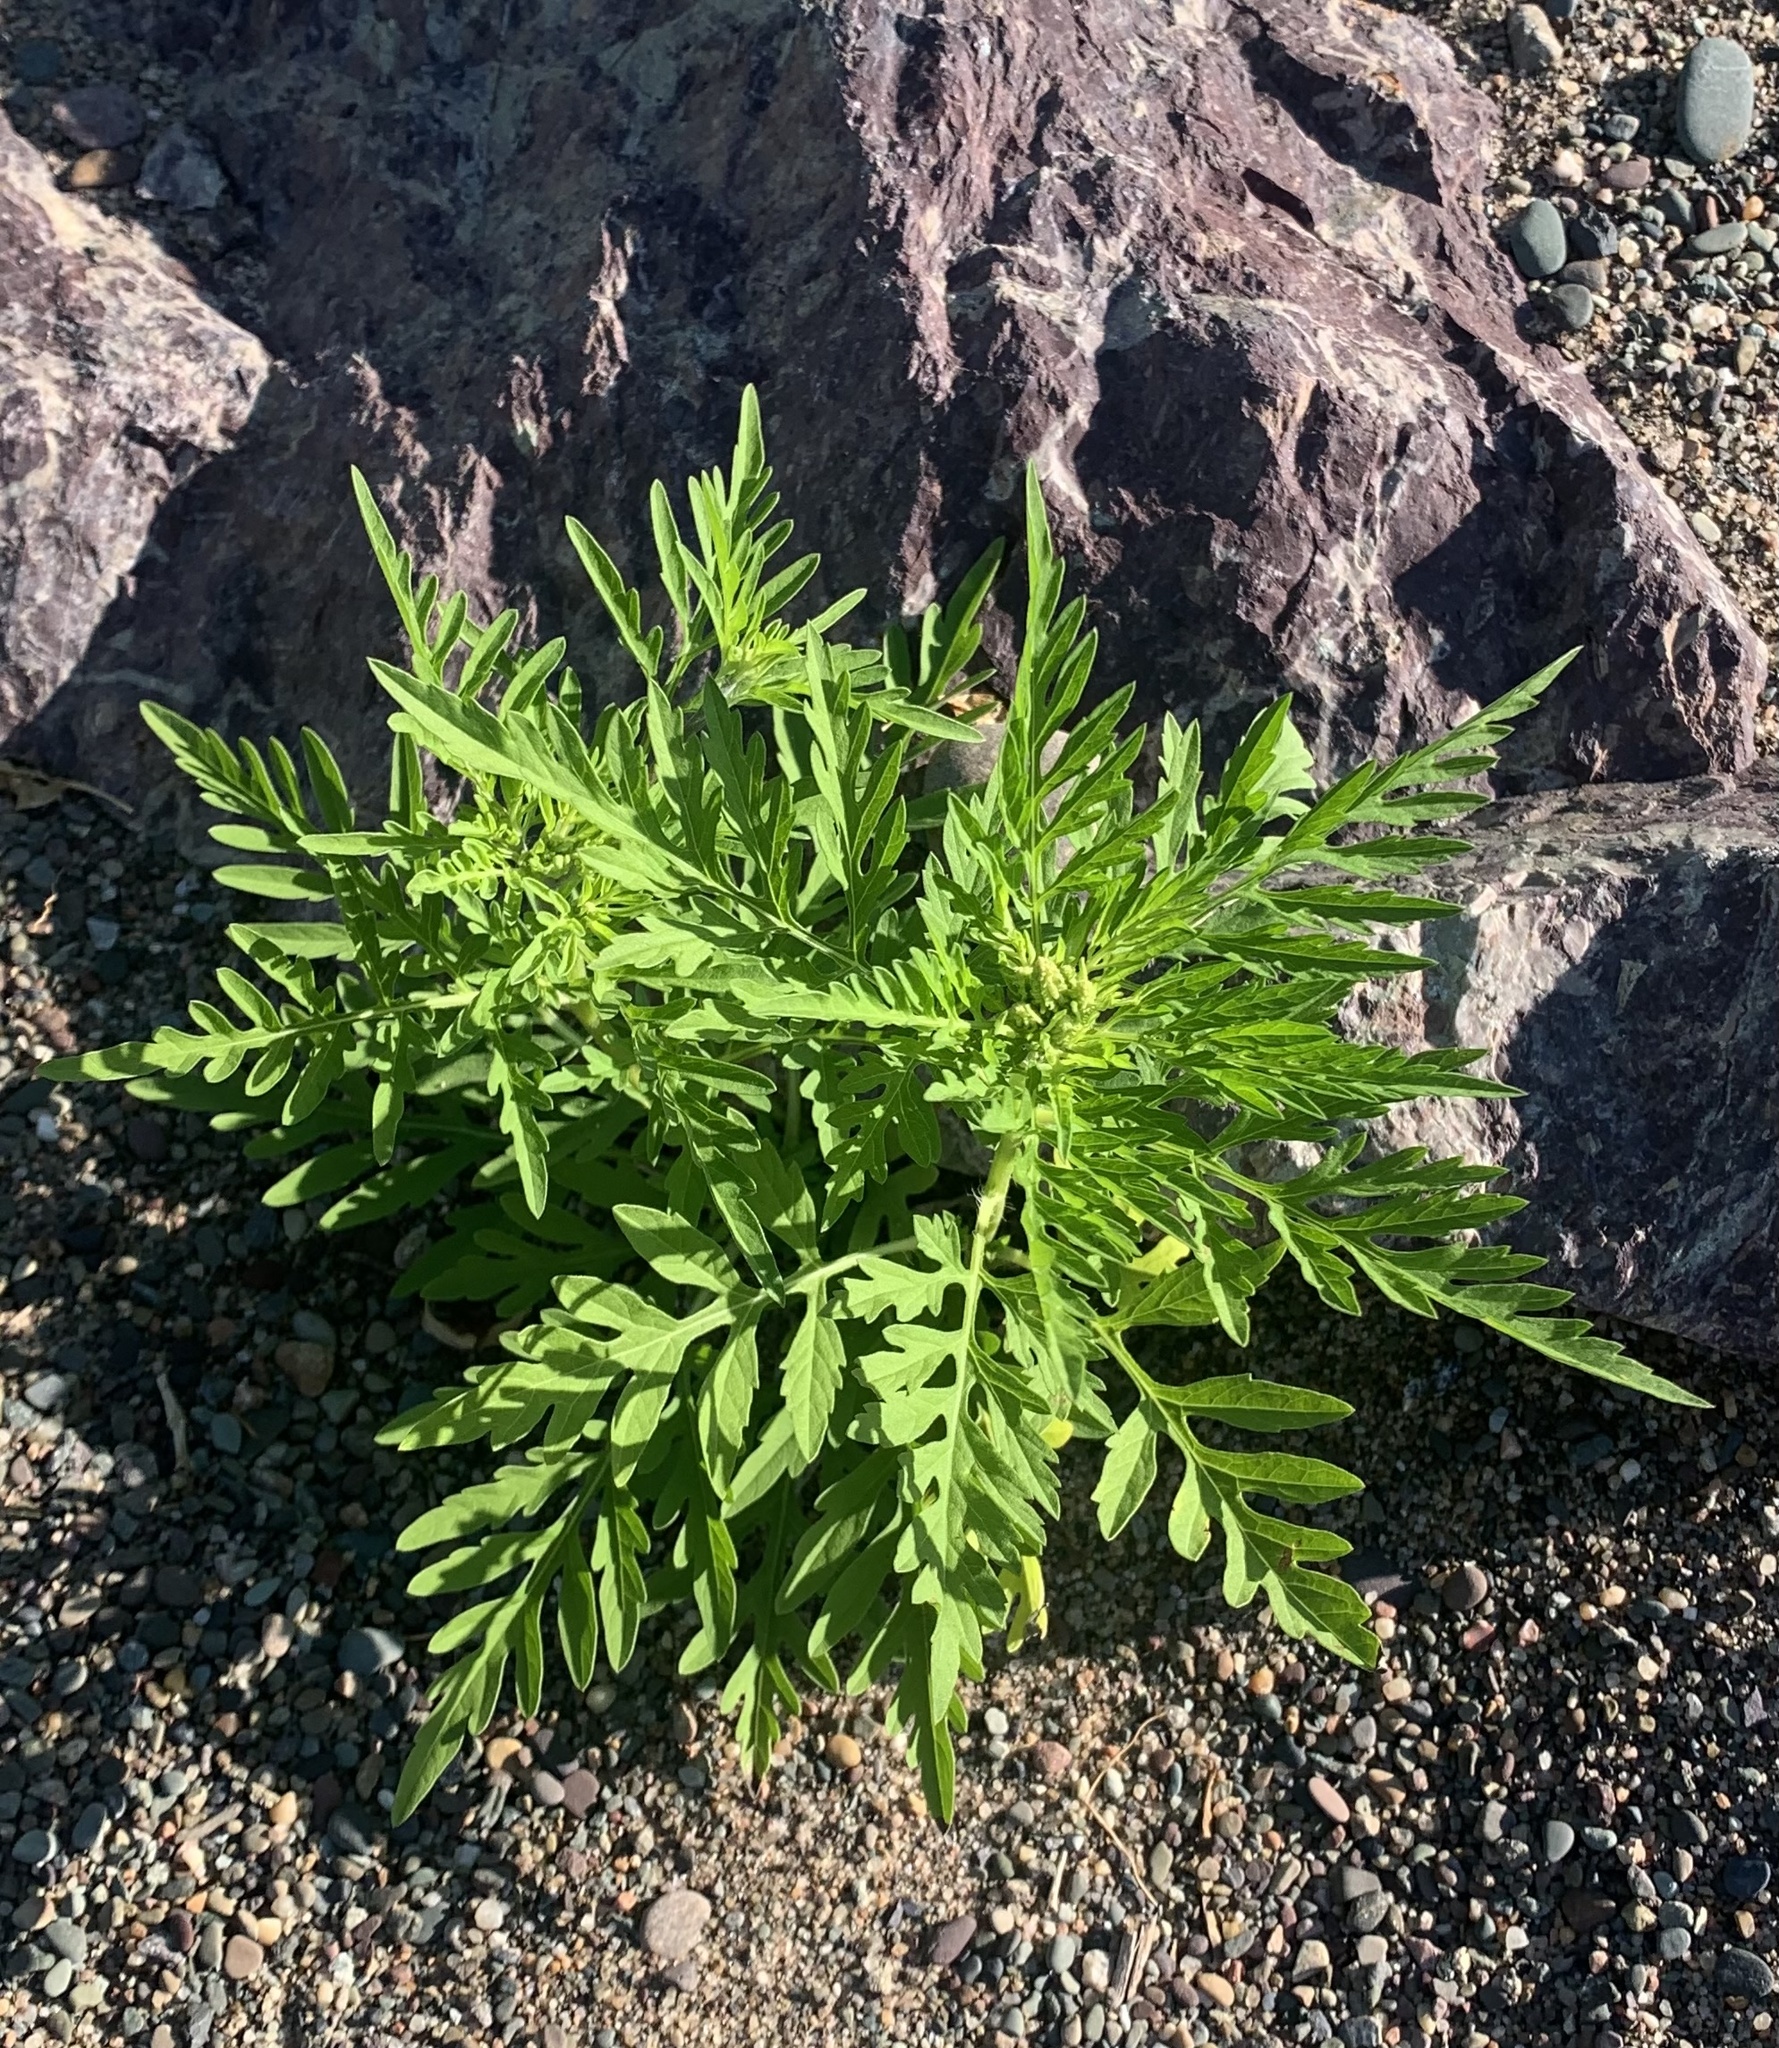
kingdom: Plantae
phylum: Tracheophyta
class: Magnoliopsida
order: Asterales
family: Asteraceae
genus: Ambrosia
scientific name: Ambrosia artemisiifolia
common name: Annual ragweed
